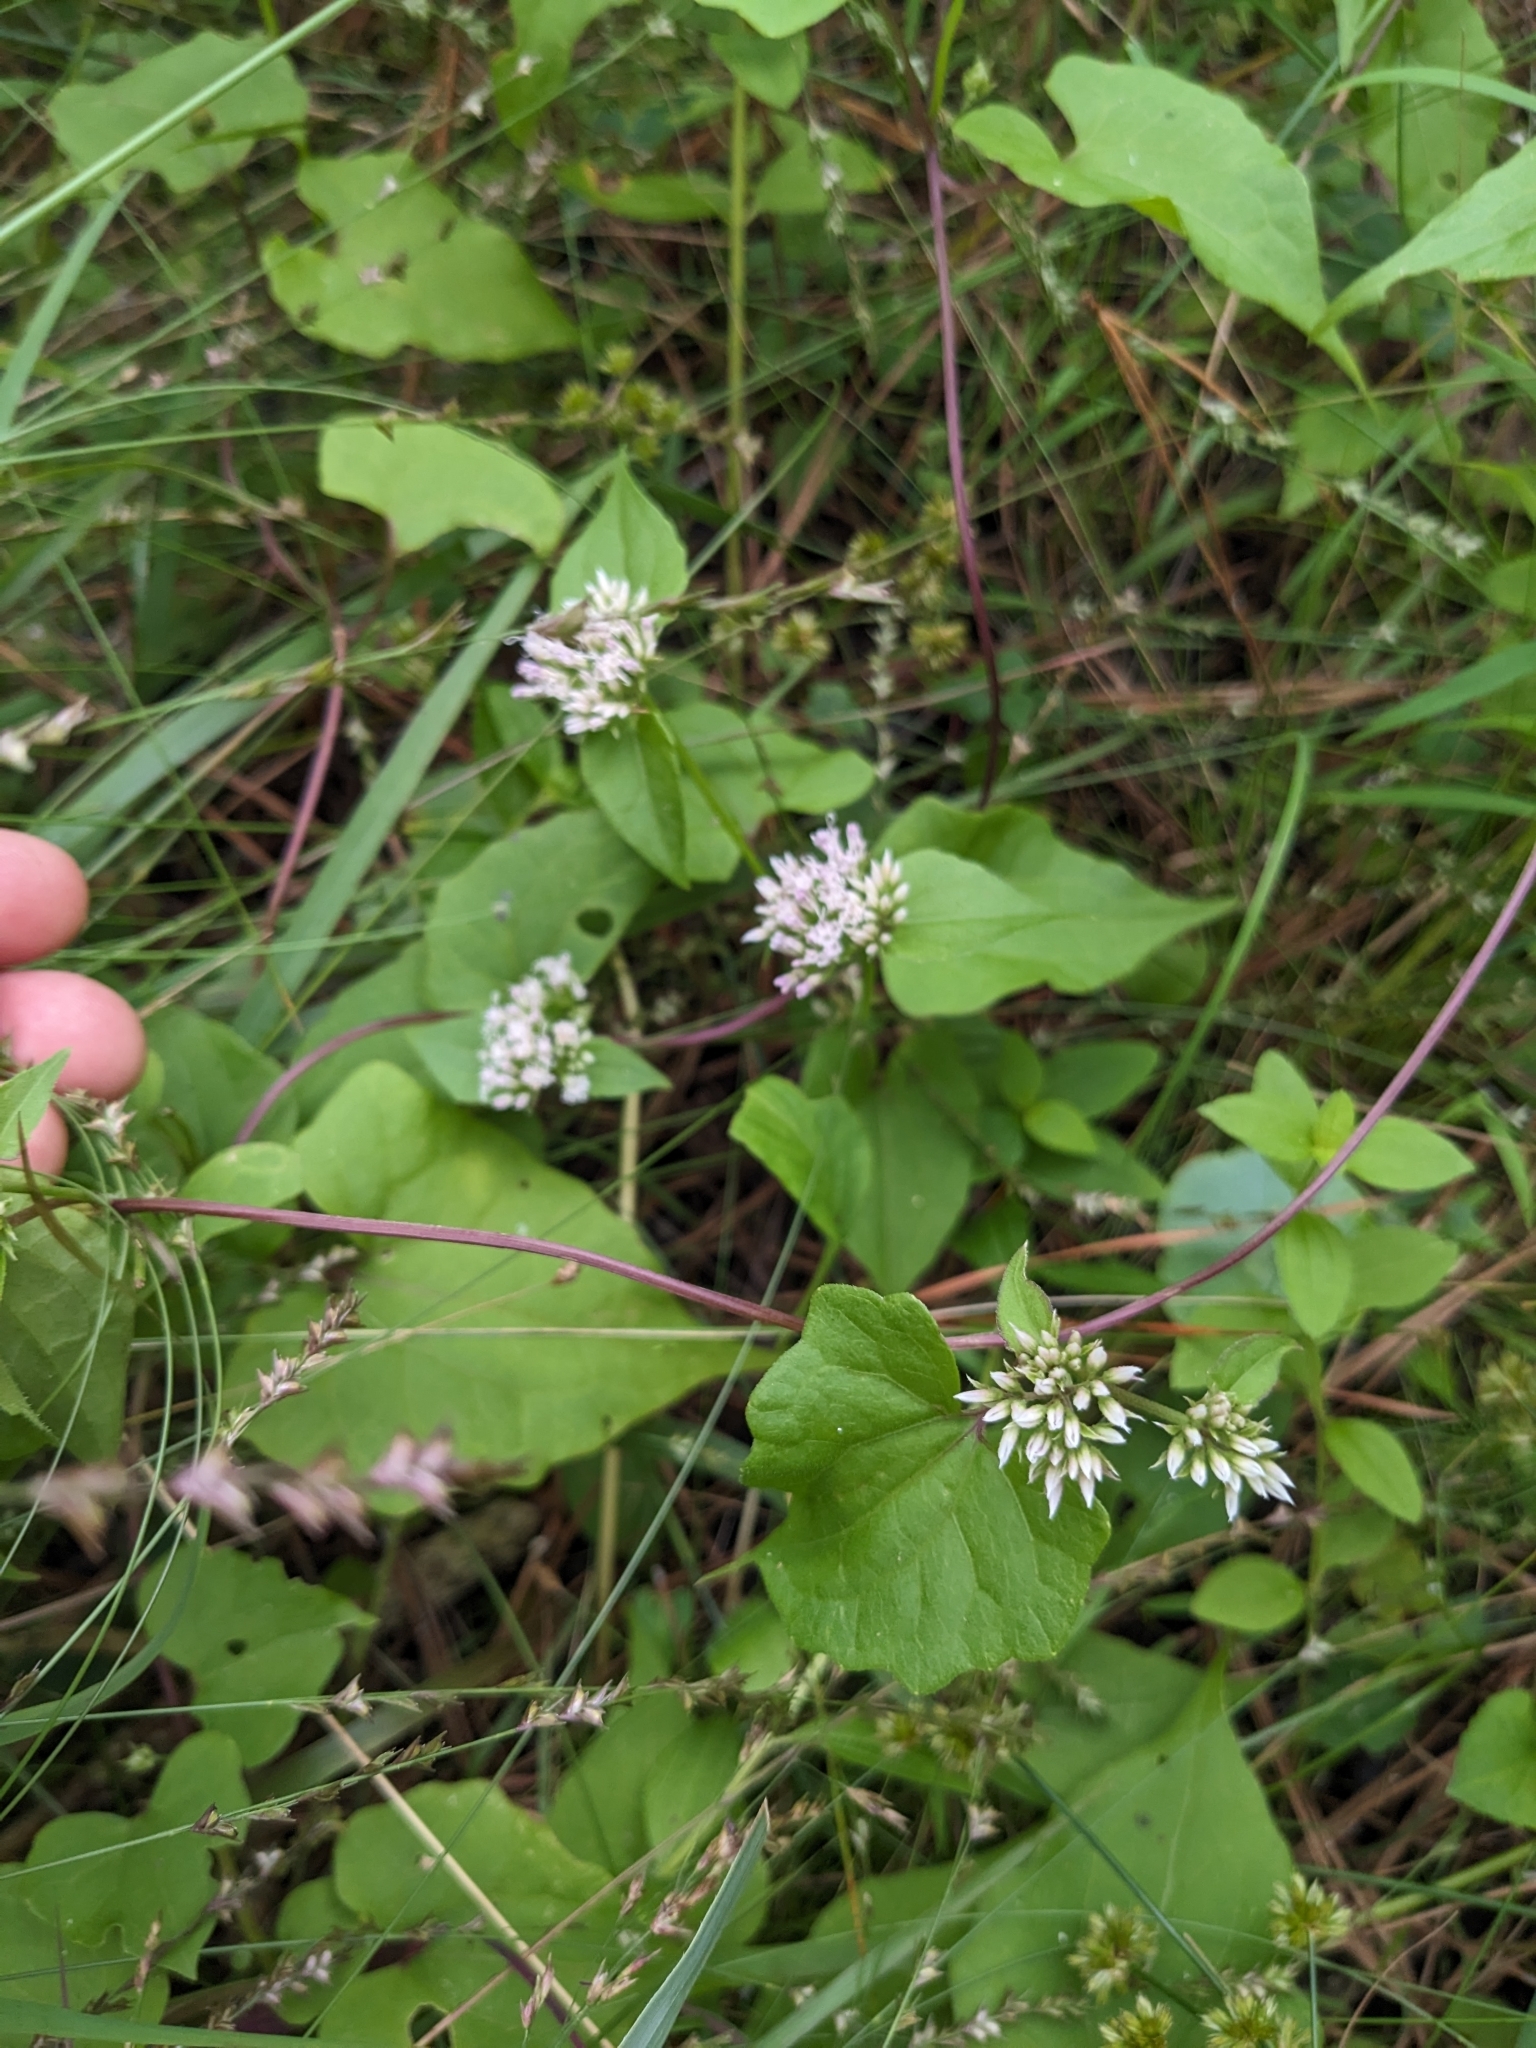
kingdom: Plantae
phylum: Tracheophyta
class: Magnoliopsida
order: Asterales
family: Asteraceae
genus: Mikania
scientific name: Mikania scandens
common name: Climbing hempvine
